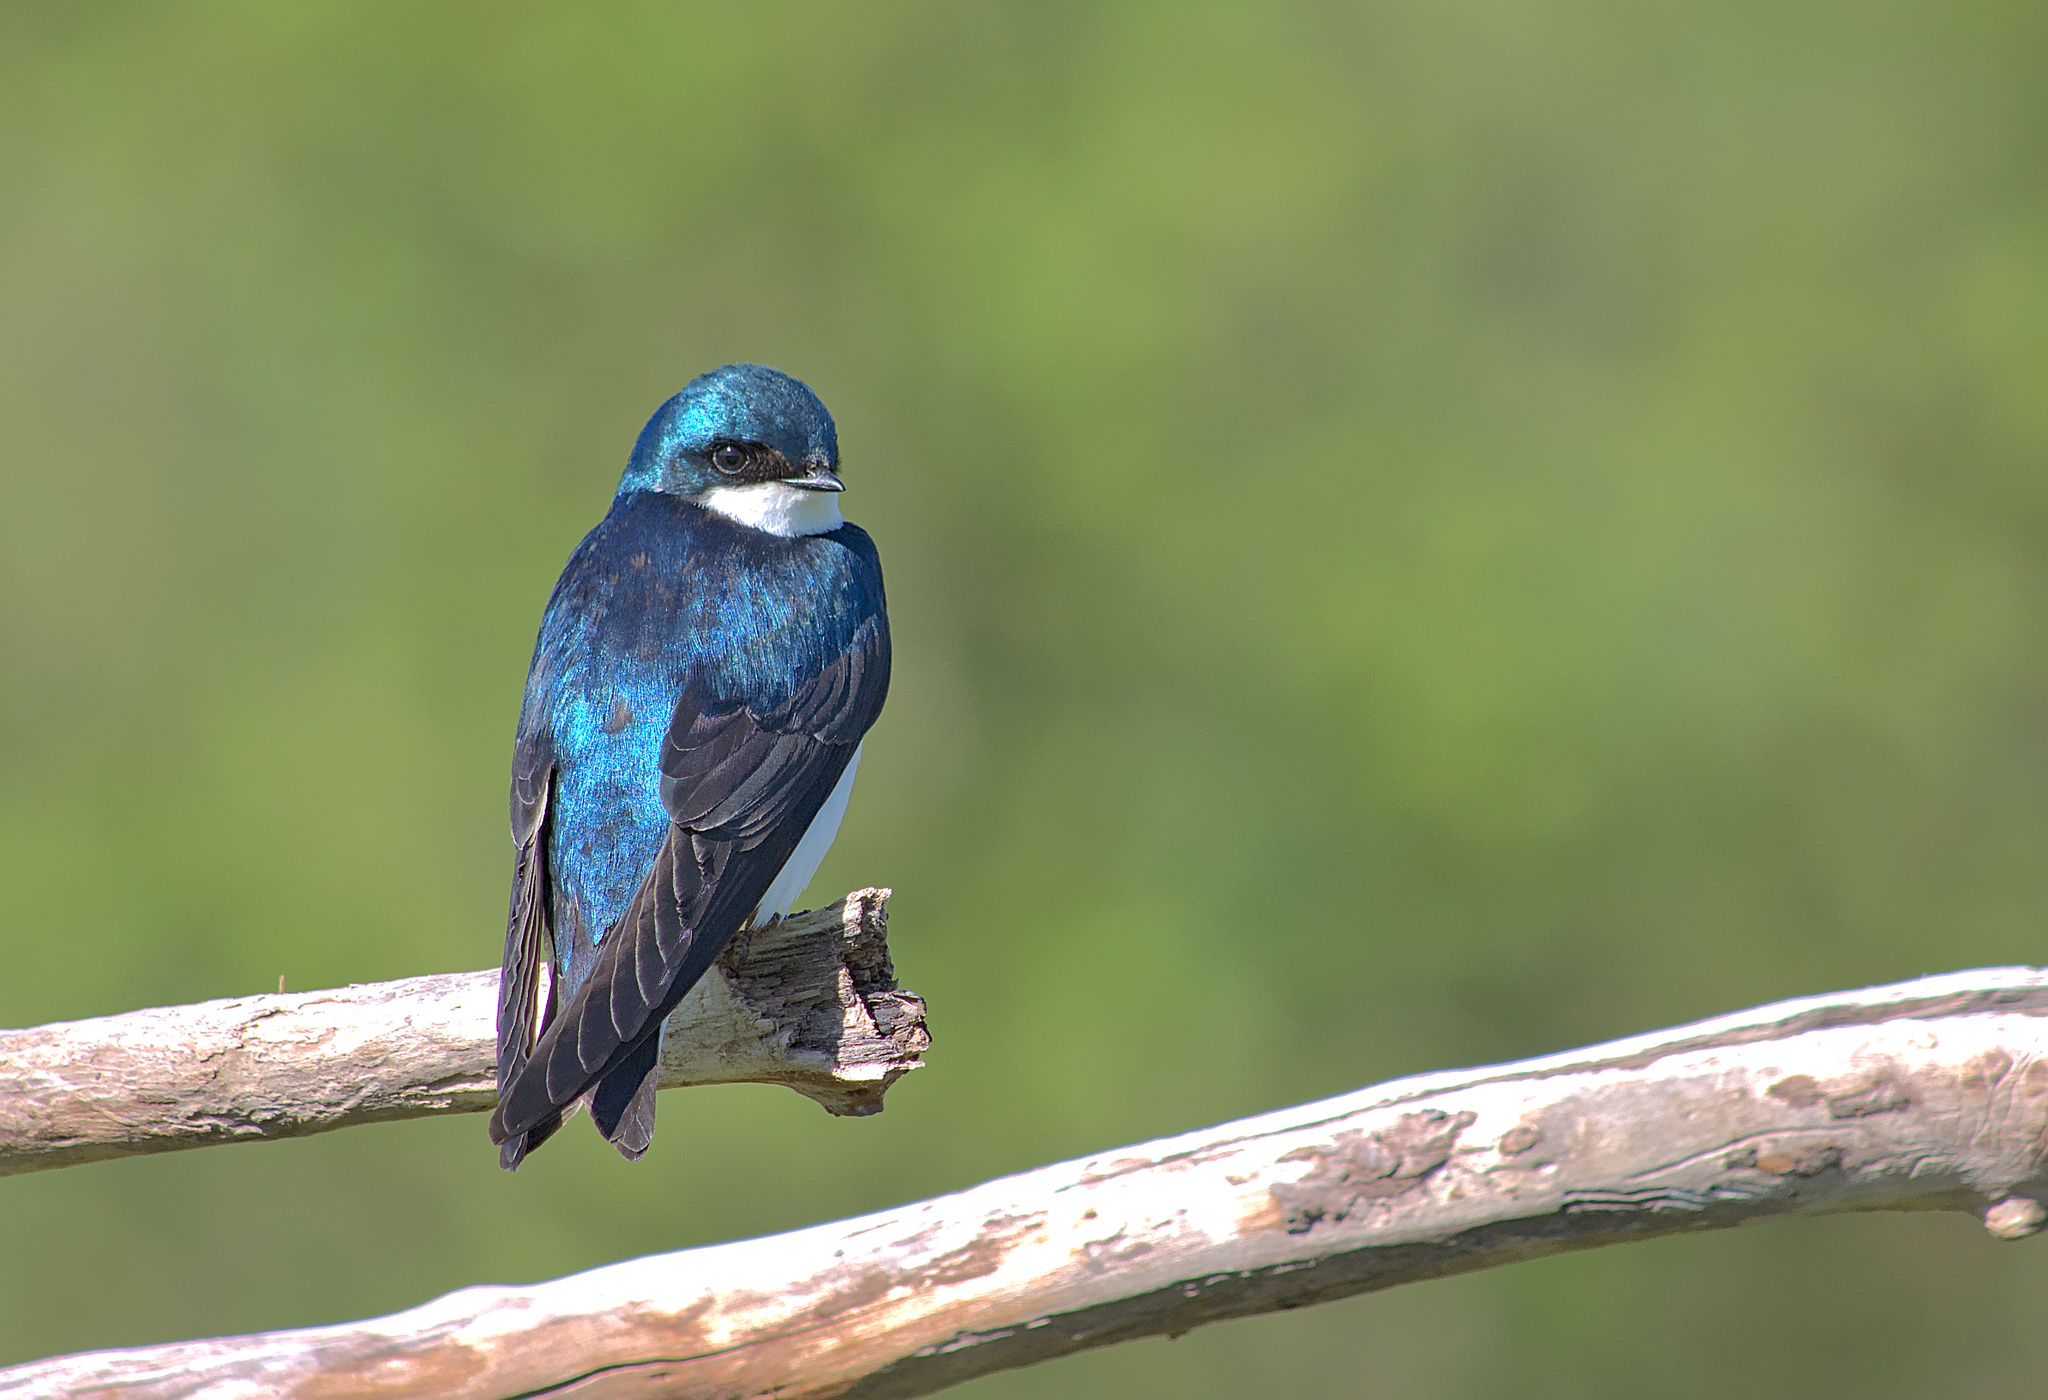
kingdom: Animalia
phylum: Chordata
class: Aves
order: Passeriformes
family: Hirundinidae
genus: Tachycineta
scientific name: Tachycineta bicolor
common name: Tree swallow
